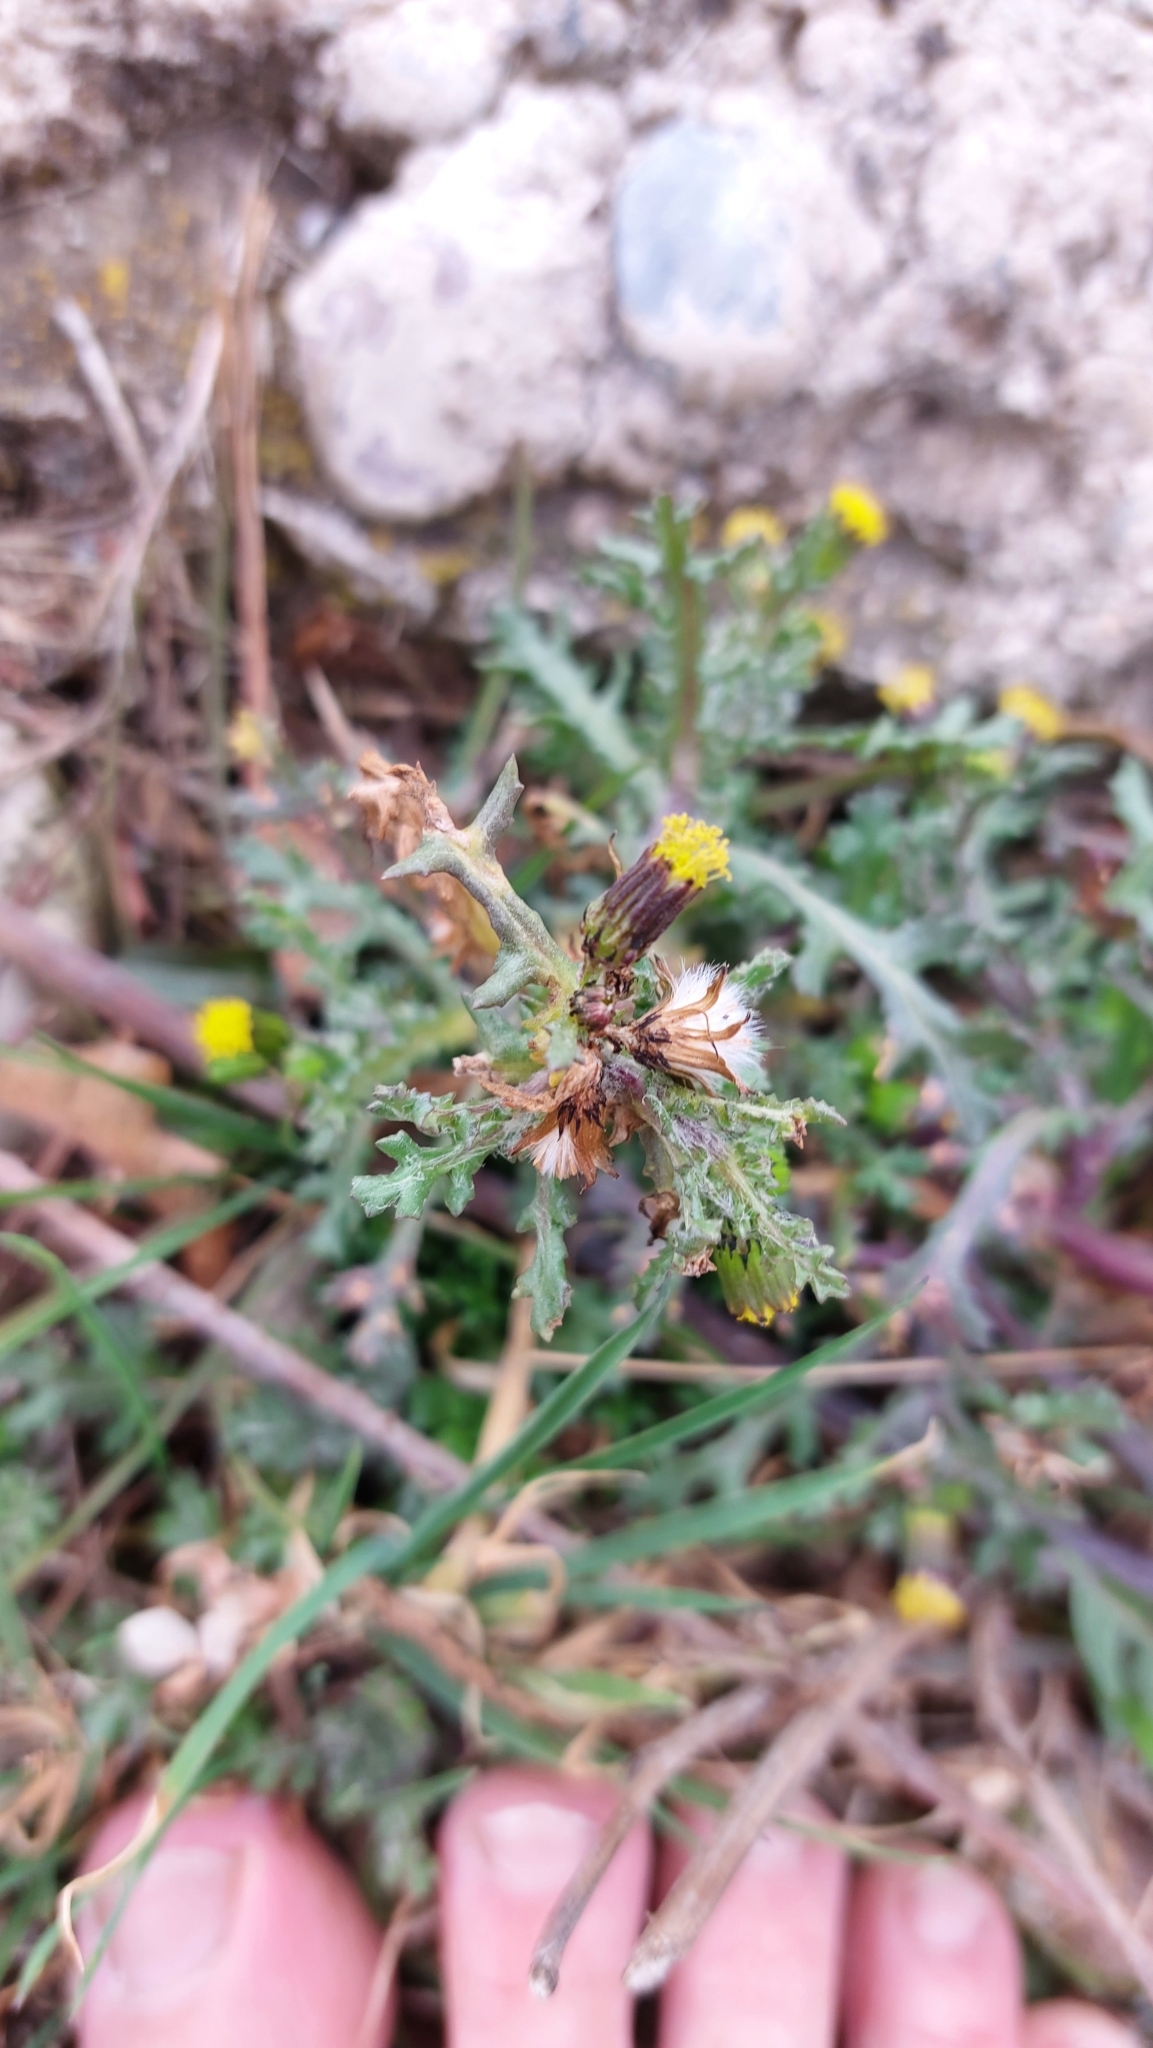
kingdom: Plantae
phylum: Tracheophyta
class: Magnoliopsida
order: Asterales
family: Asteraceae
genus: Senecio
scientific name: Senecio vulgaris
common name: Old-man-in-the-spring
